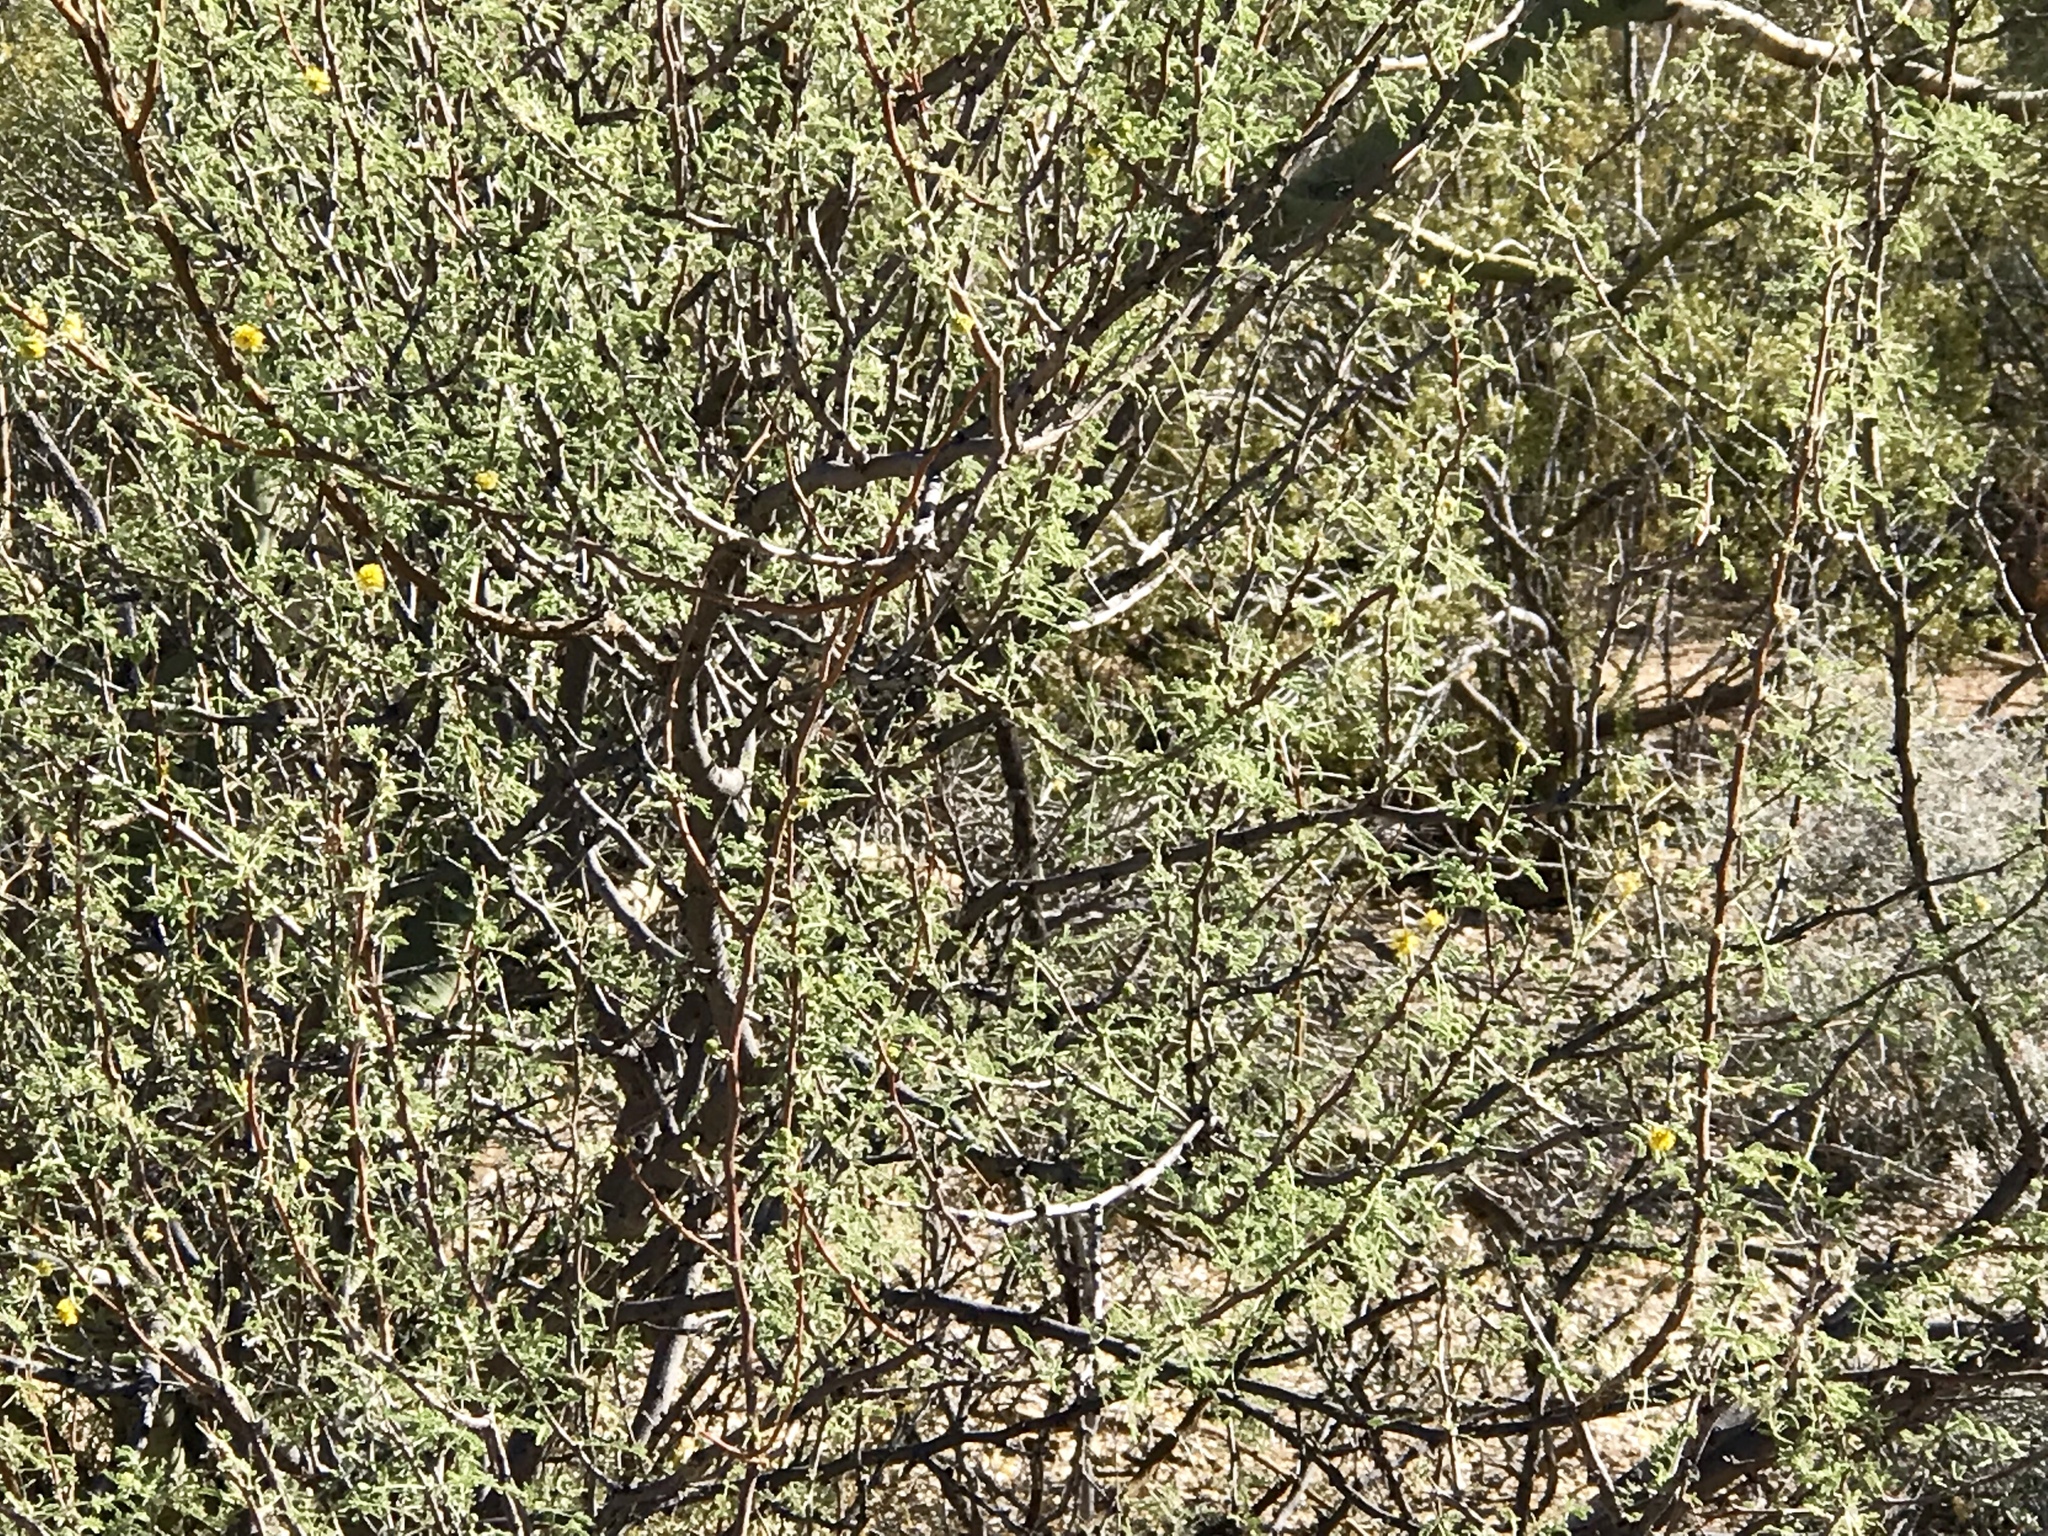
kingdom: Plantae
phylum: Tracheophyta
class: Magnoliopsida
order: Fabales
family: Fabaceae
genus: Vachellia
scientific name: Vachellia constricta
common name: Mescat acacia
